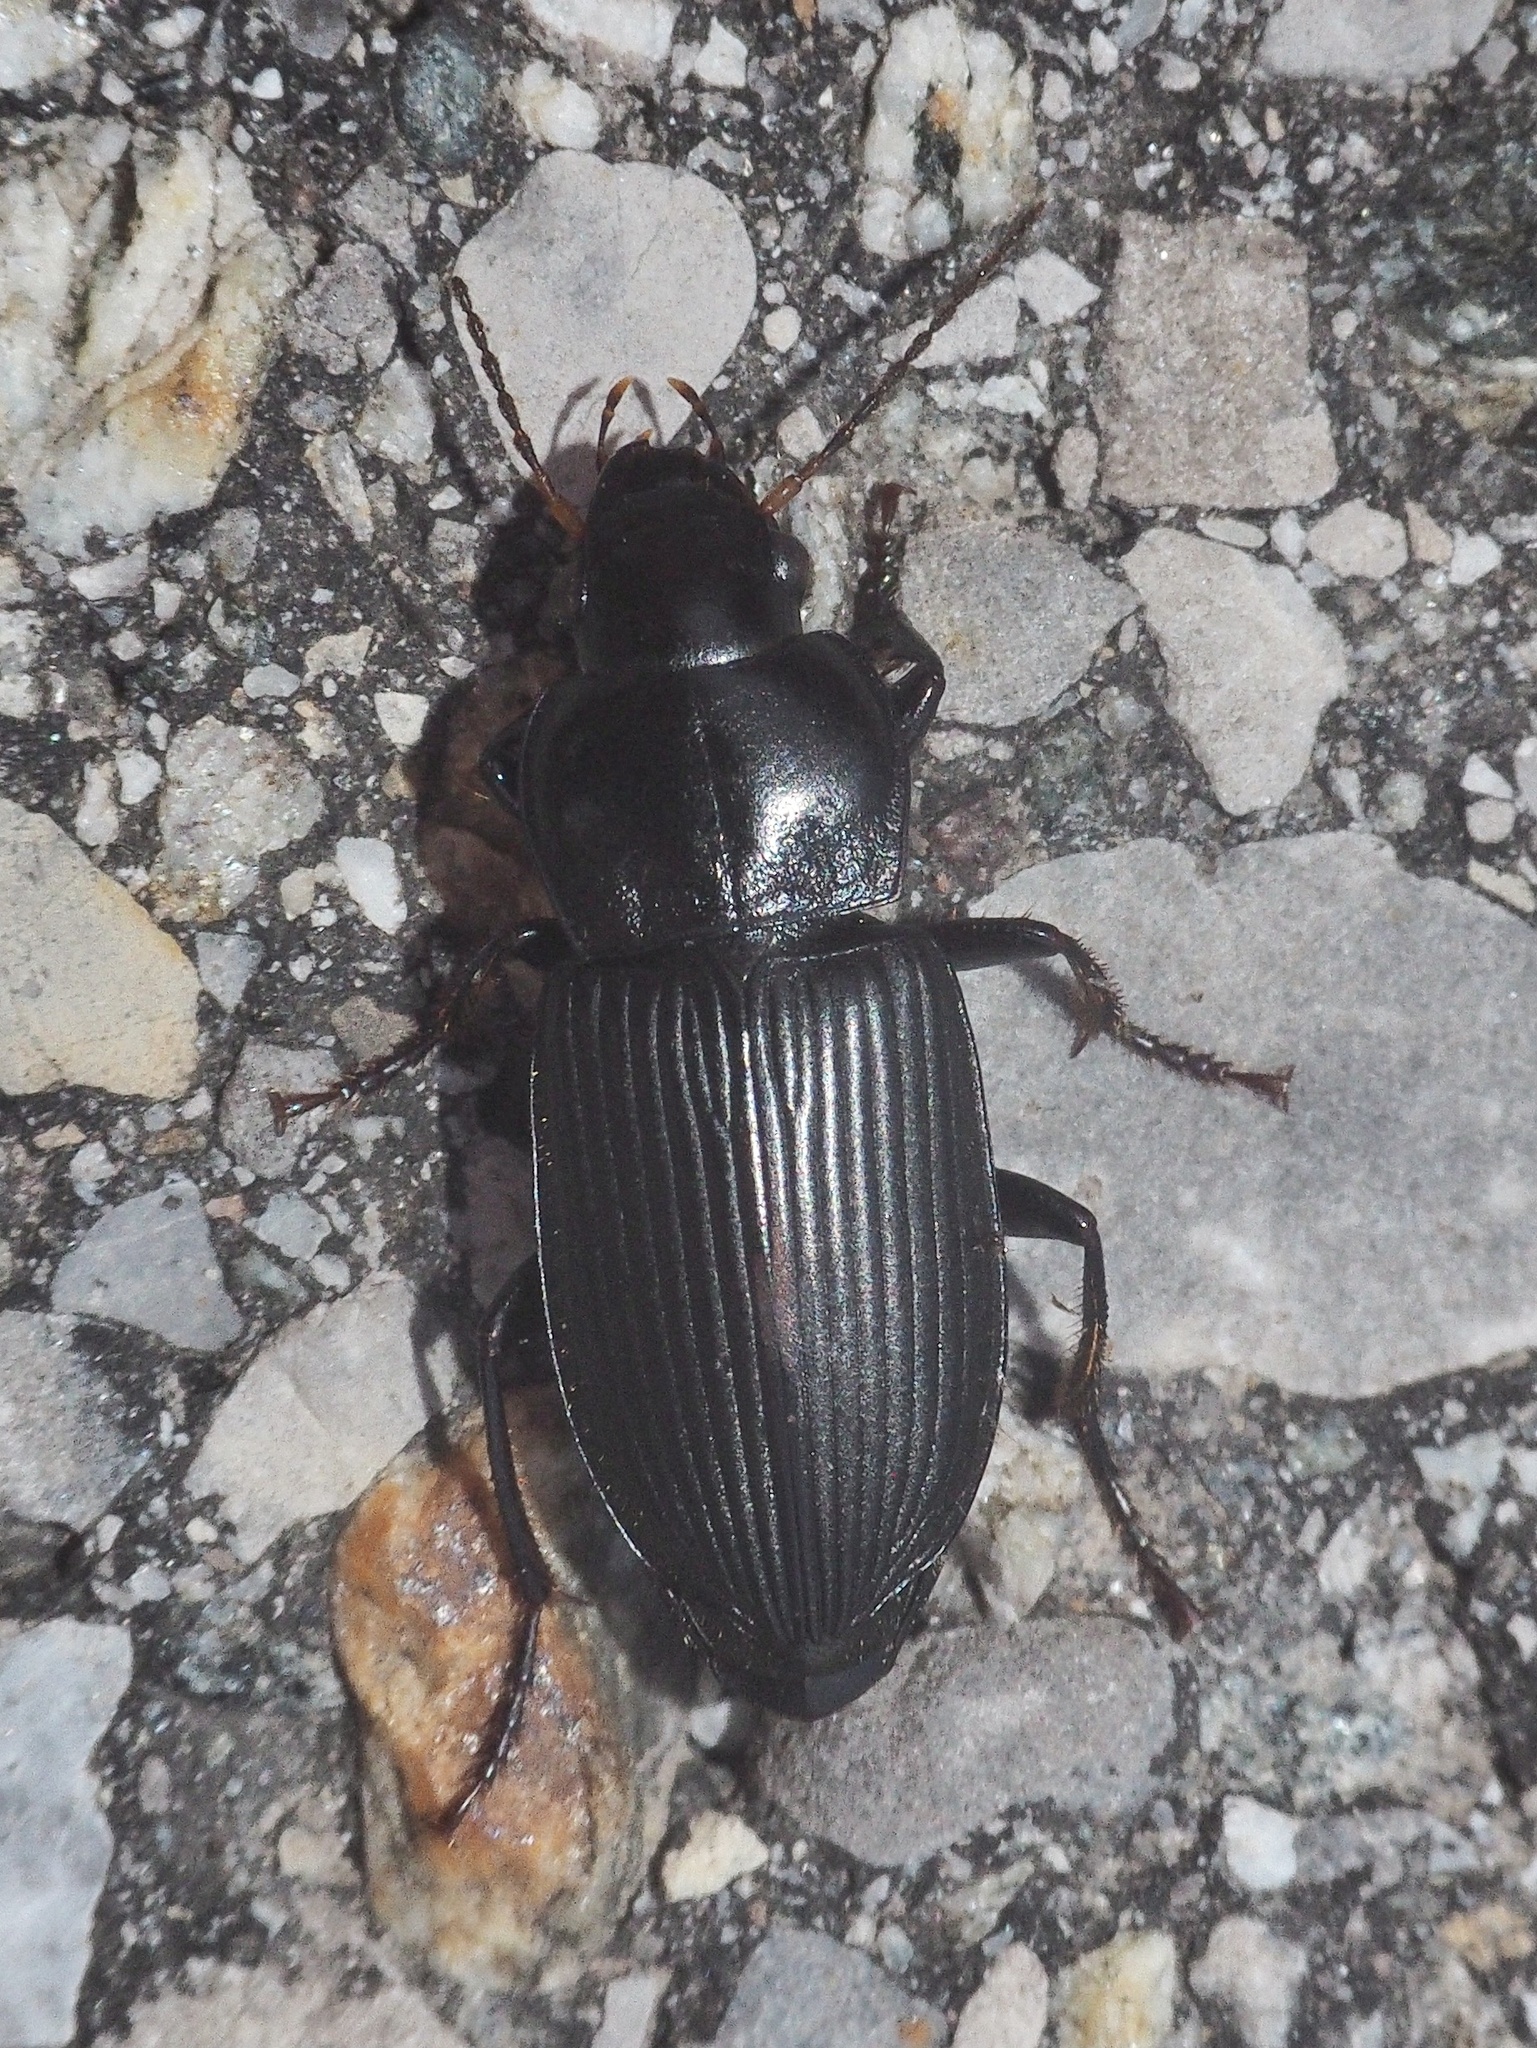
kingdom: Animalia
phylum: Arthropoda
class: Insecta
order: Coleoptera
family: Carabidae
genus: Anisodactylus
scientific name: Anisodactylus binotatus
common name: Two-marked harp ground beetle
